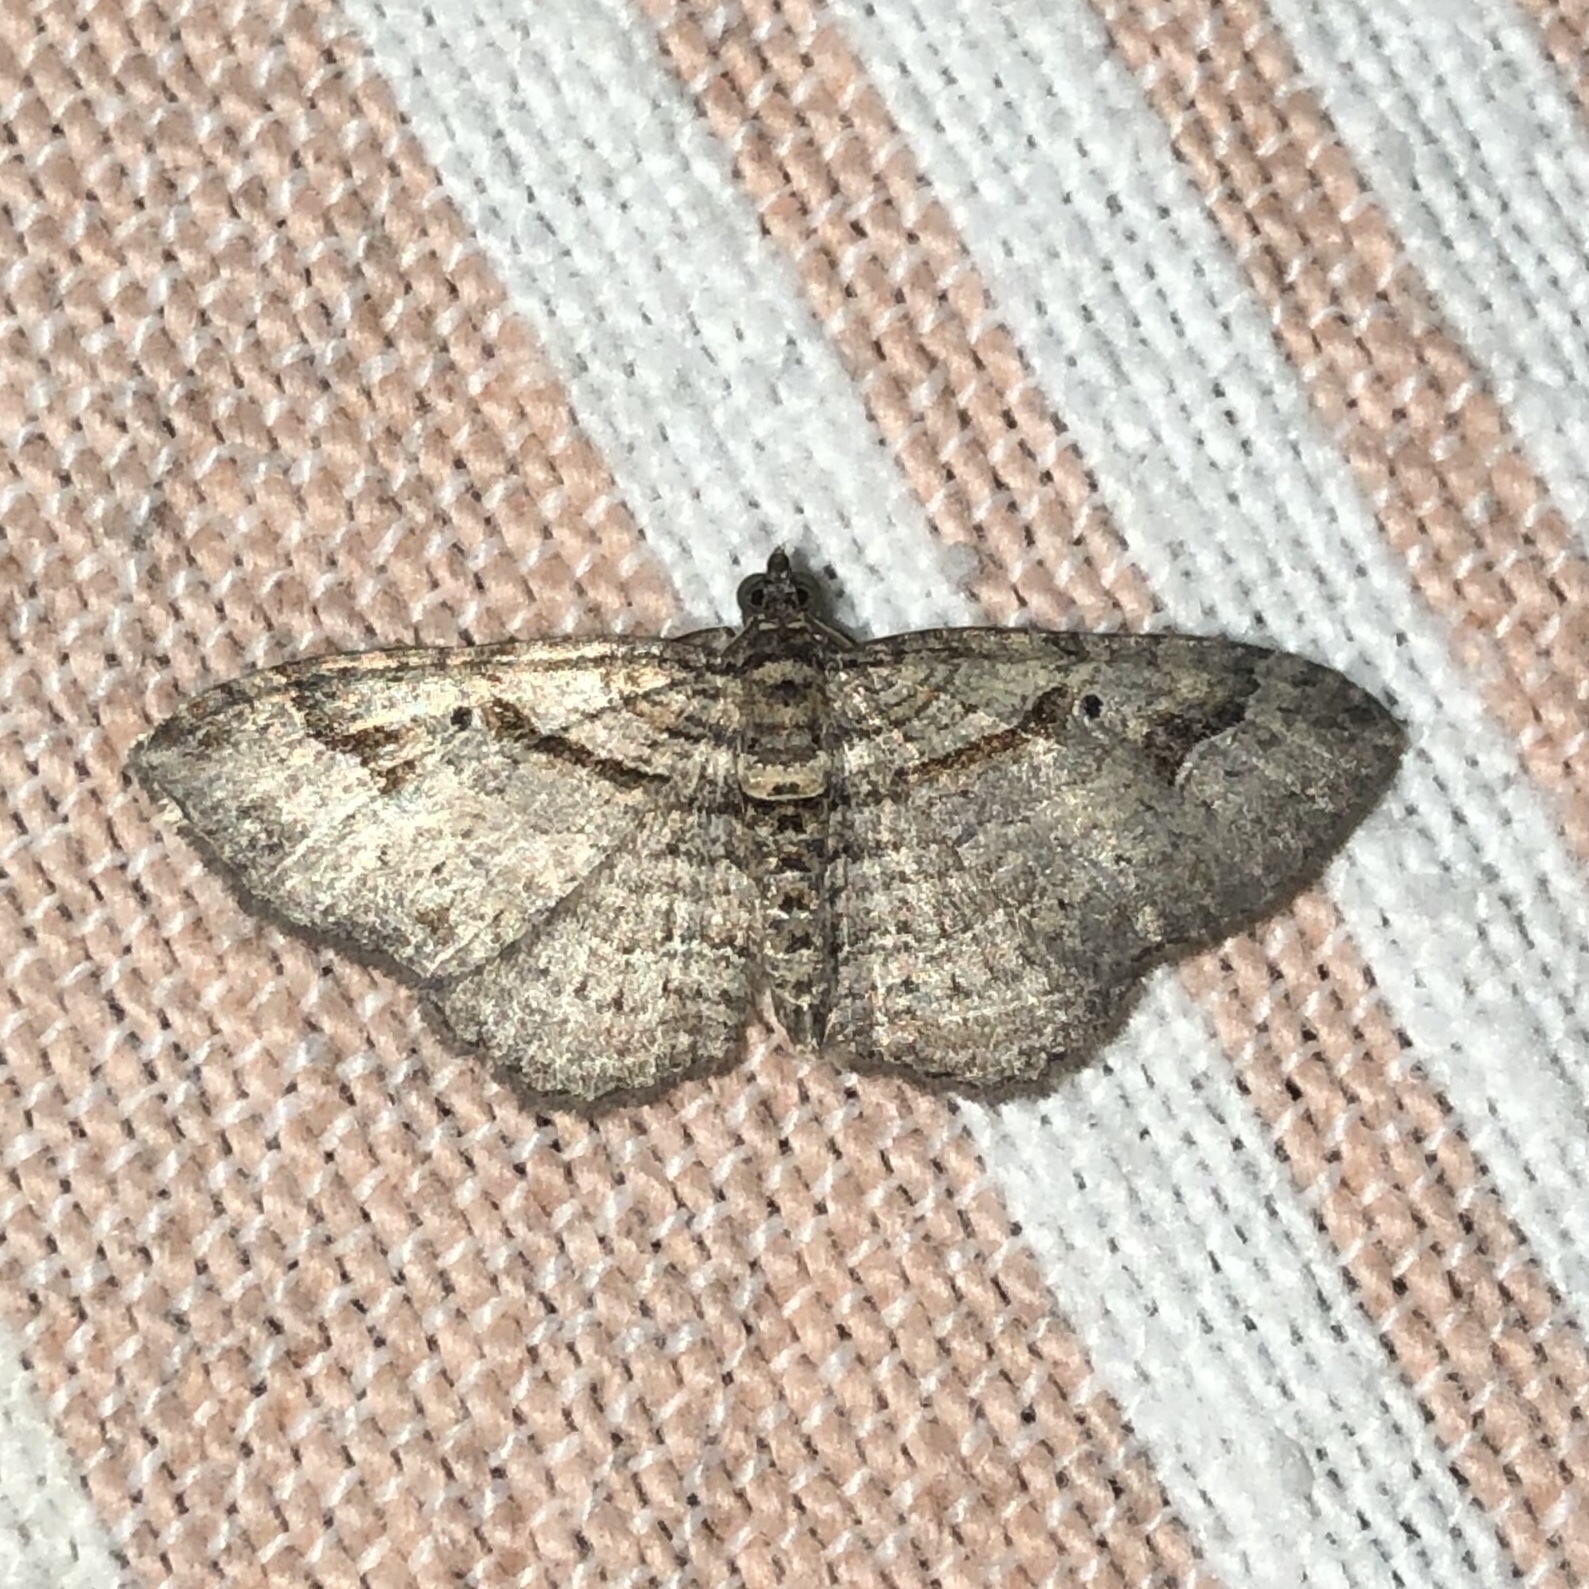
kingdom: Animalia
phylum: Arthropoda
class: Insecta
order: Lepidoptera
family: Geometridae
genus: Costaconvexa
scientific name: Costaconvexa centrostrigaria
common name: Bent-line carpet
